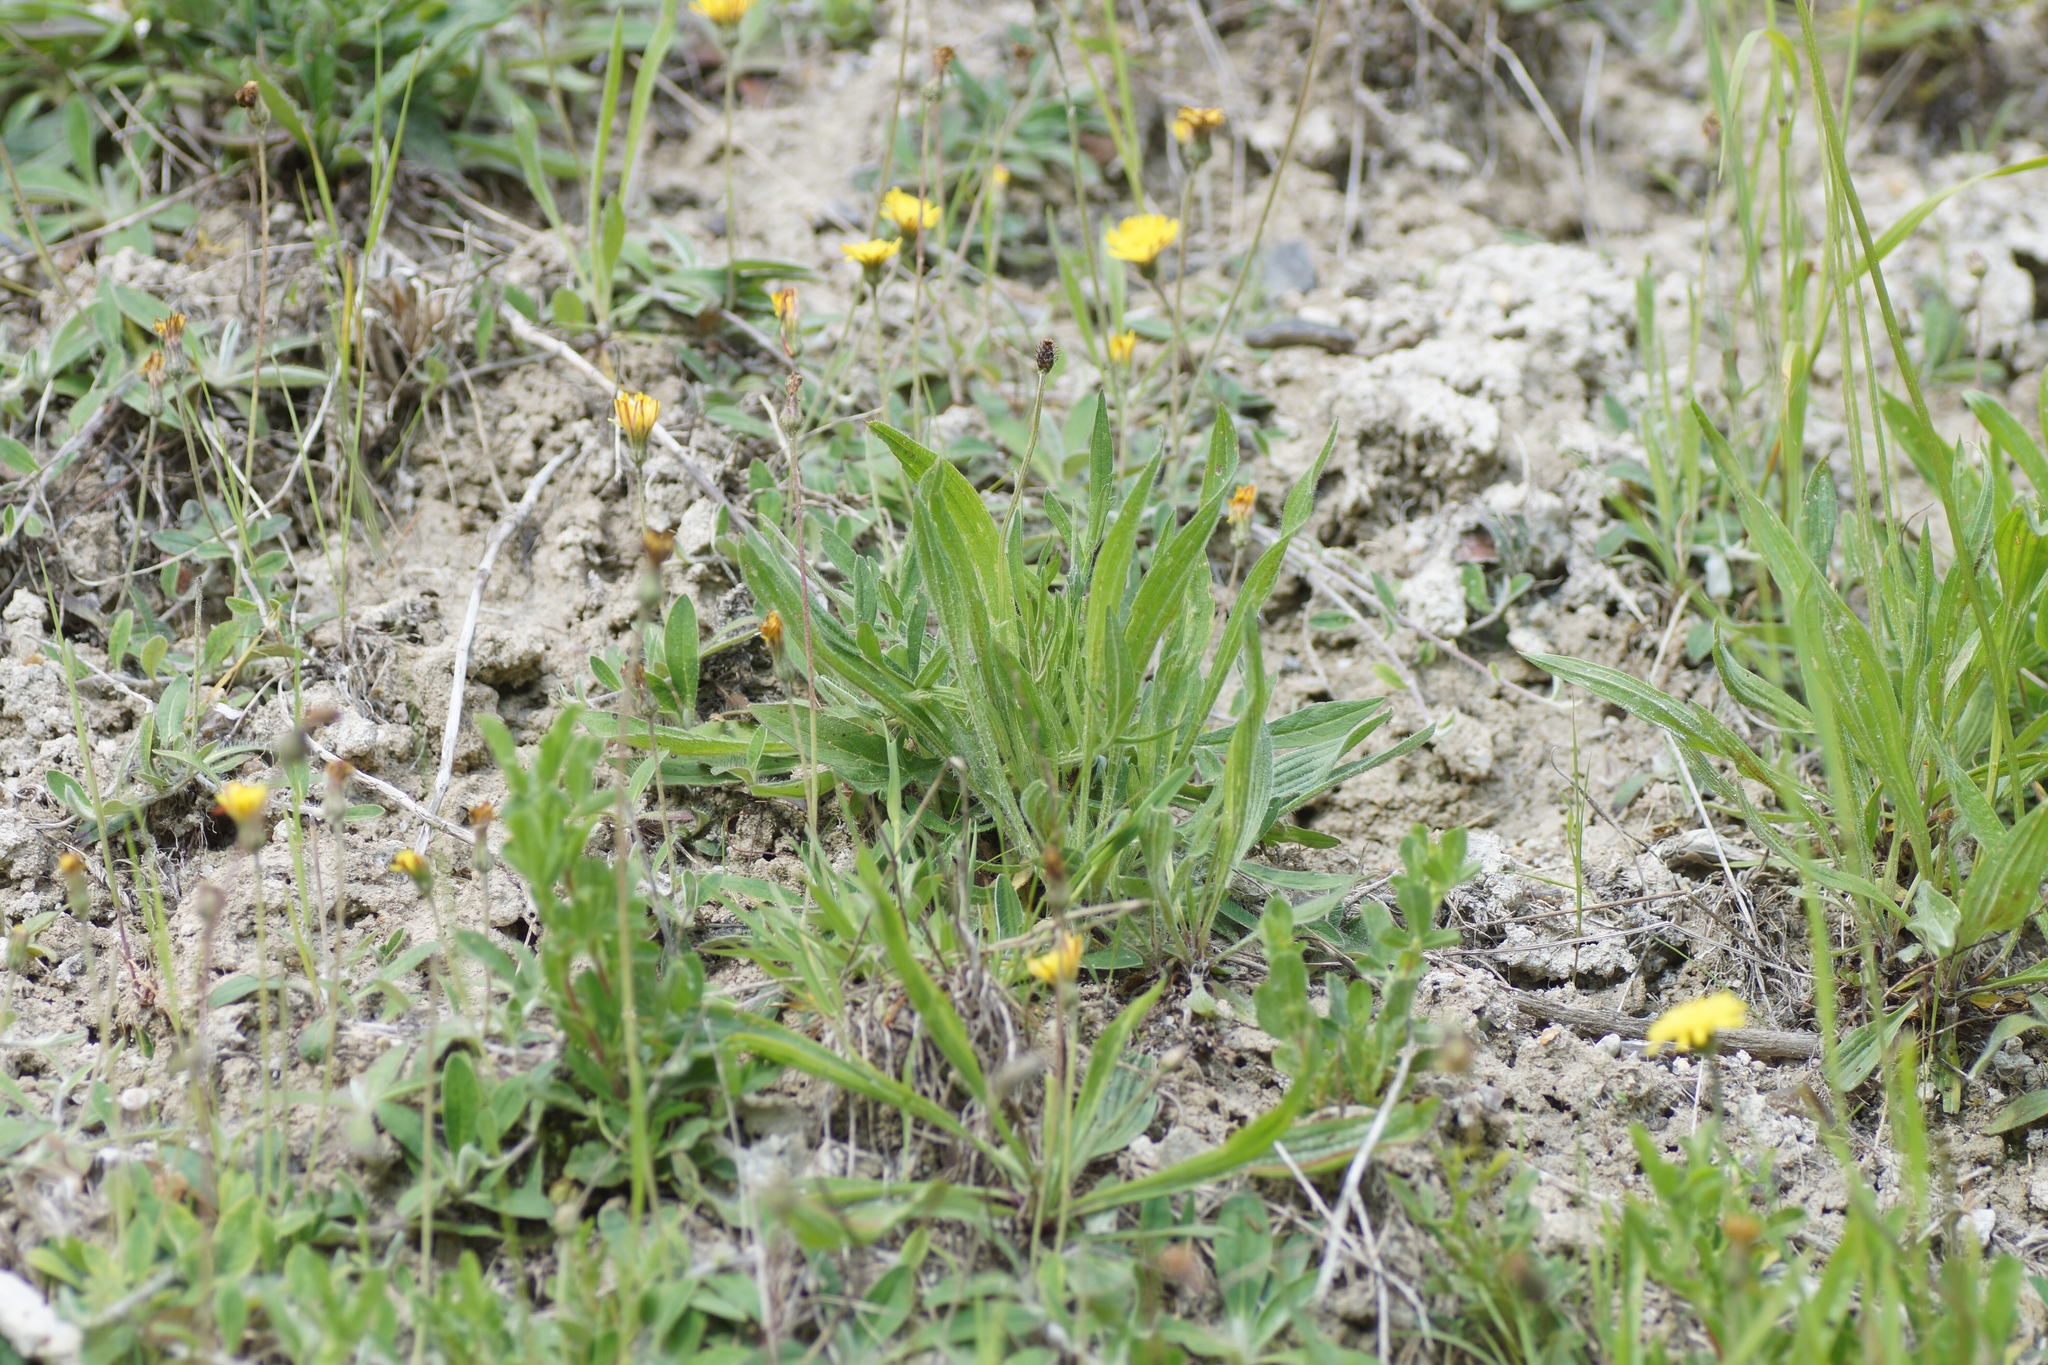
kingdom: Plantae
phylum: Tracheophyta
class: Magnoliopsida
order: Lamiales
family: Plantaginaceae
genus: Plantago
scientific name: Plantago lanceolata
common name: Ribwort plantain
